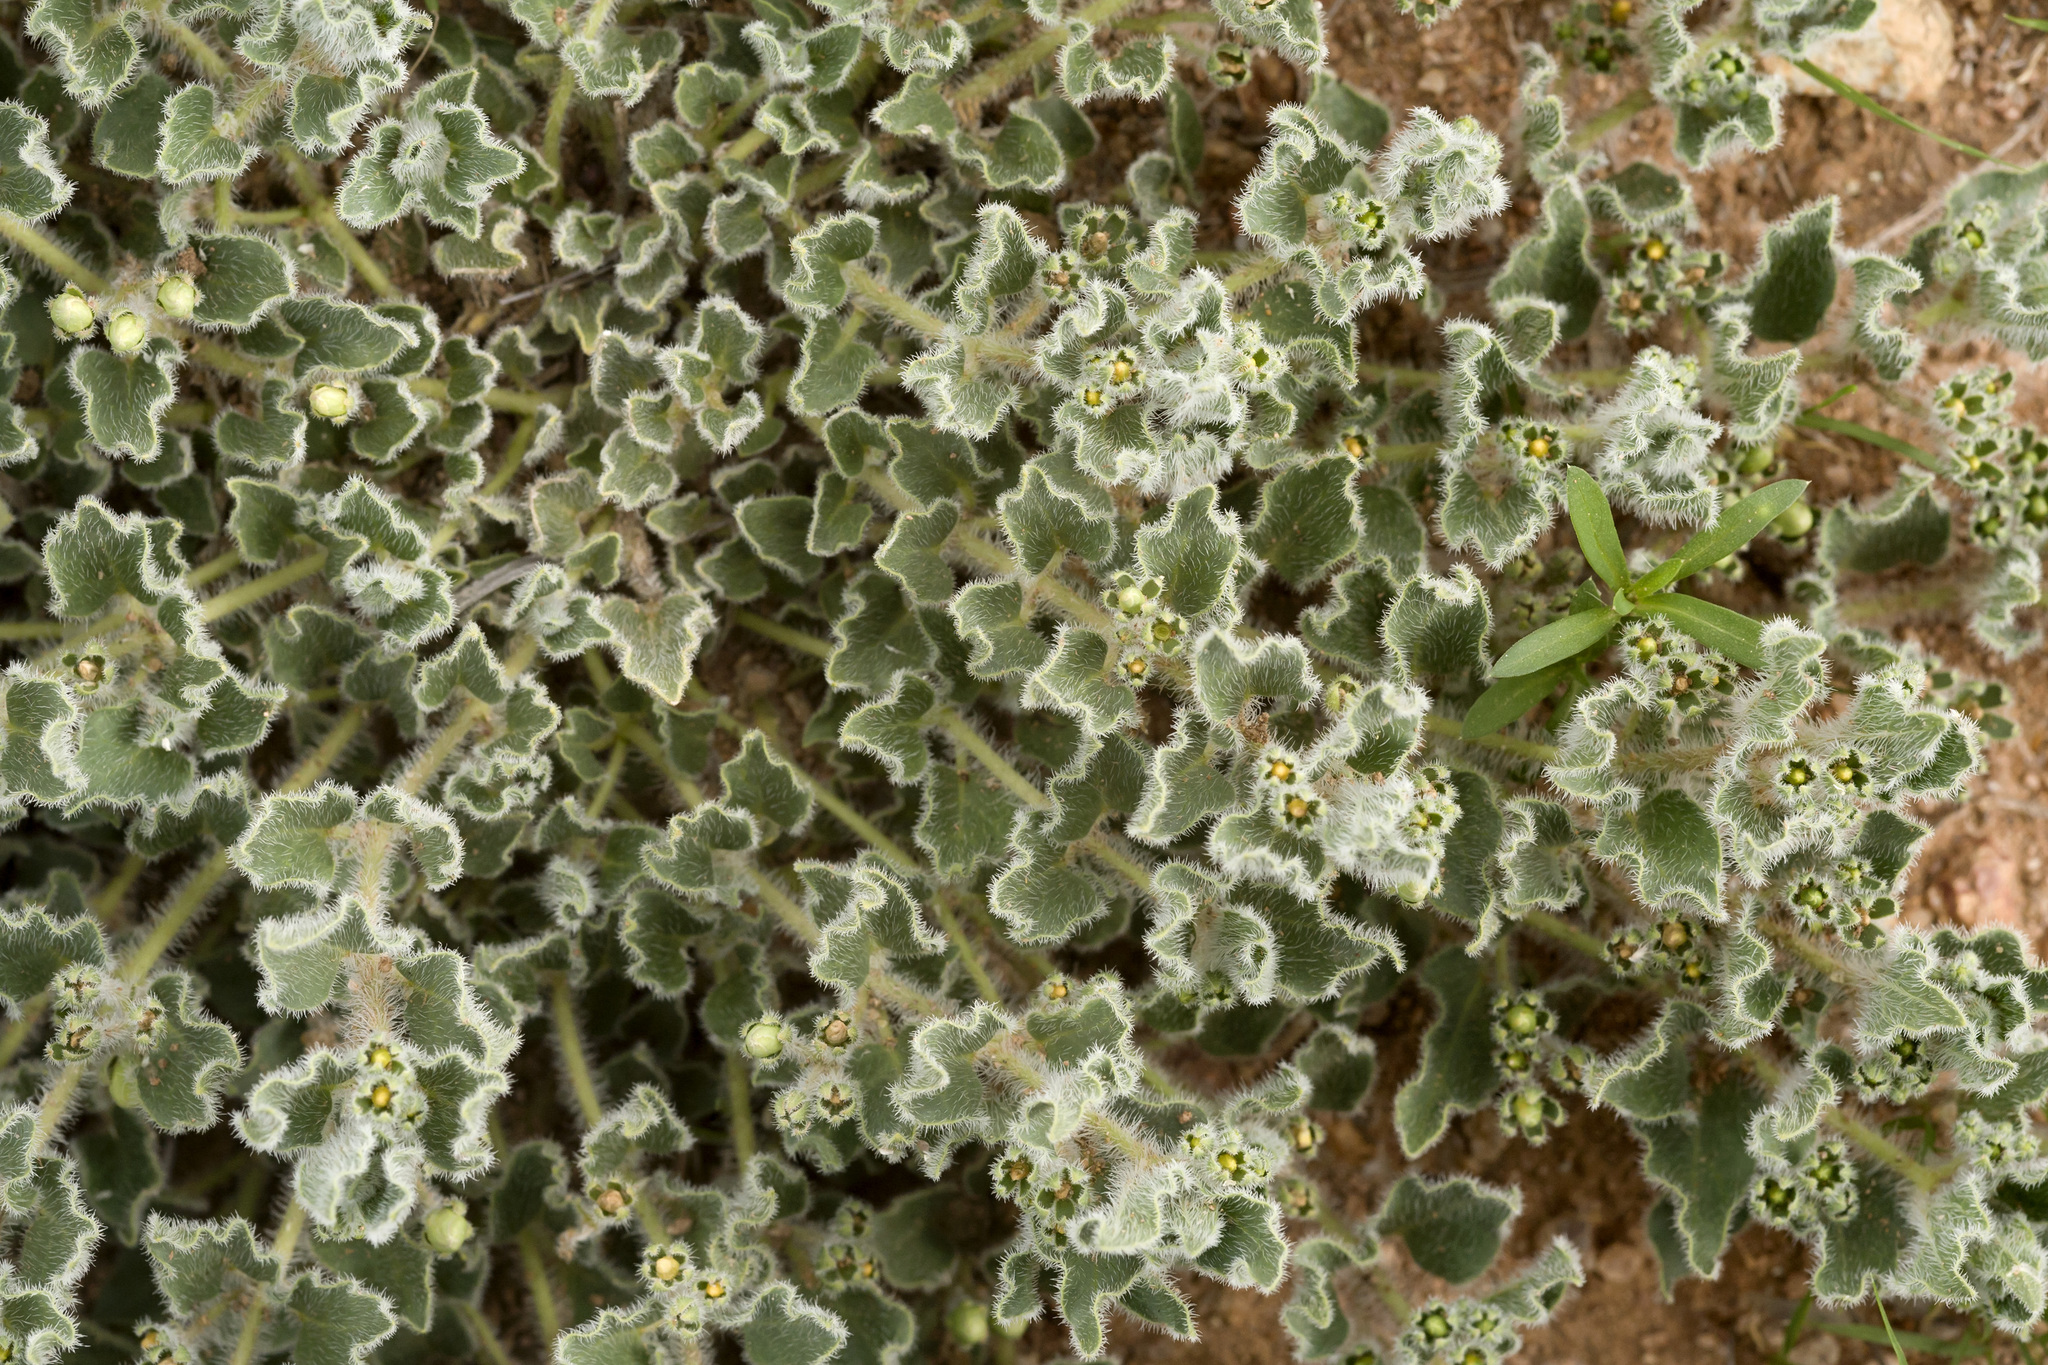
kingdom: Plantae
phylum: Tracheophyta
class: Magnoliopsida
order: Gentianales
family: Apocynaceae
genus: Matelea
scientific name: Matelea chihuahuensis
